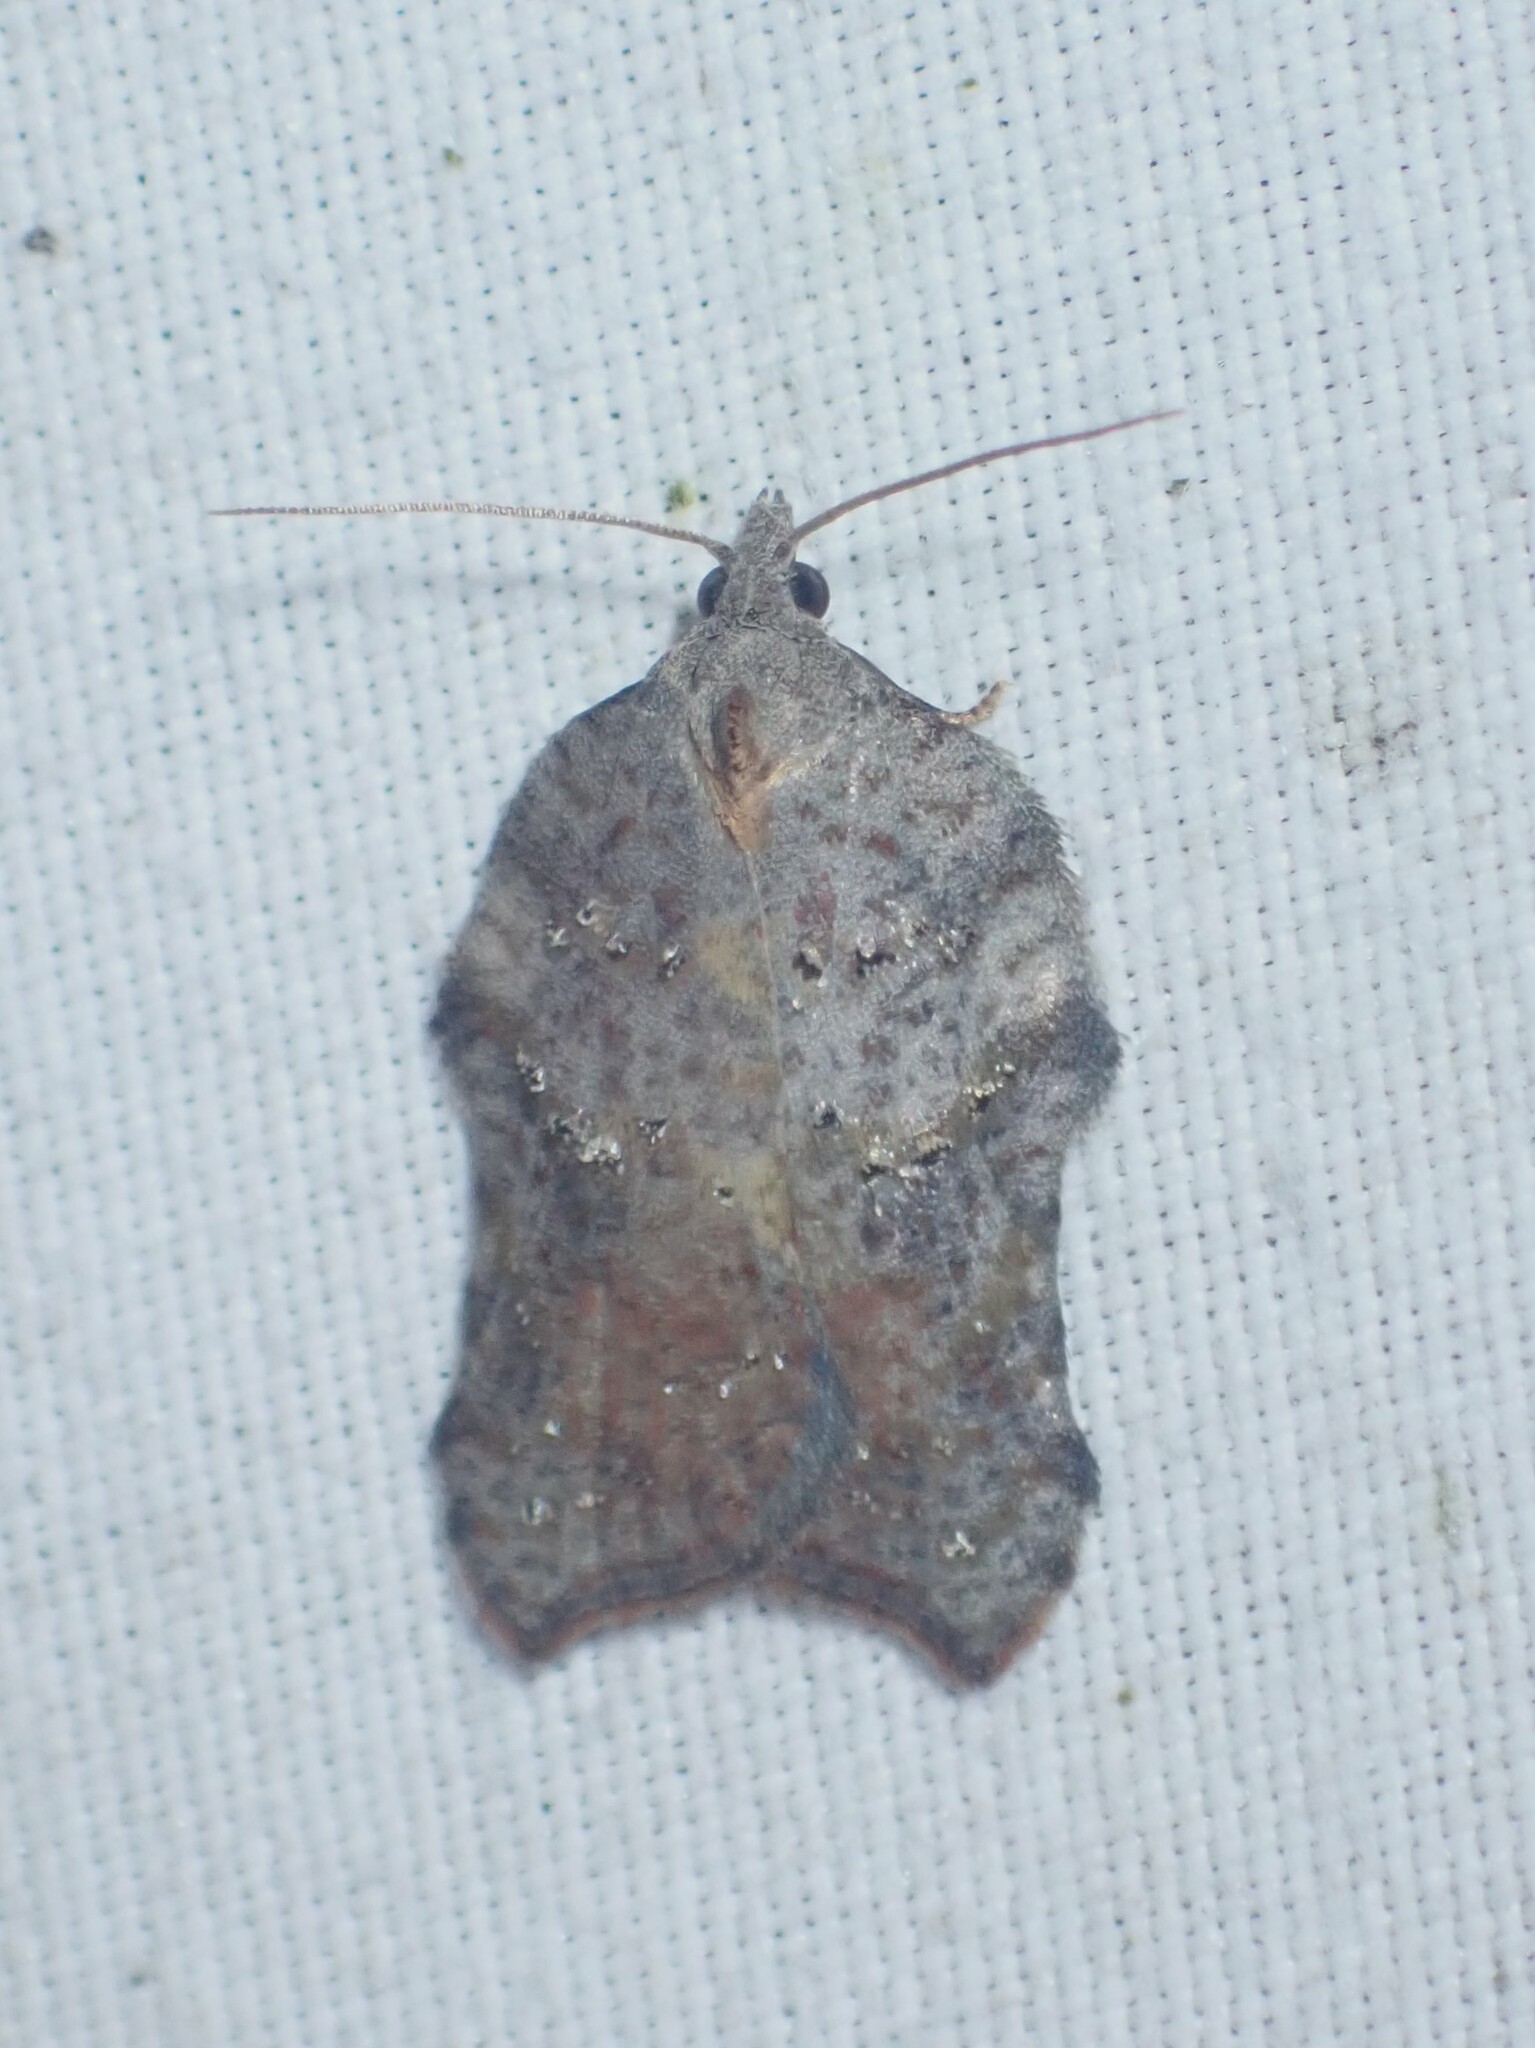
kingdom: Animalia
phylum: Arthropoda
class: Insecta
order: Lepidoptera
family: Tortricidae
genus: Acleris
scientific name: Acleris effractana
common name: Hook-winged tortrix moth
